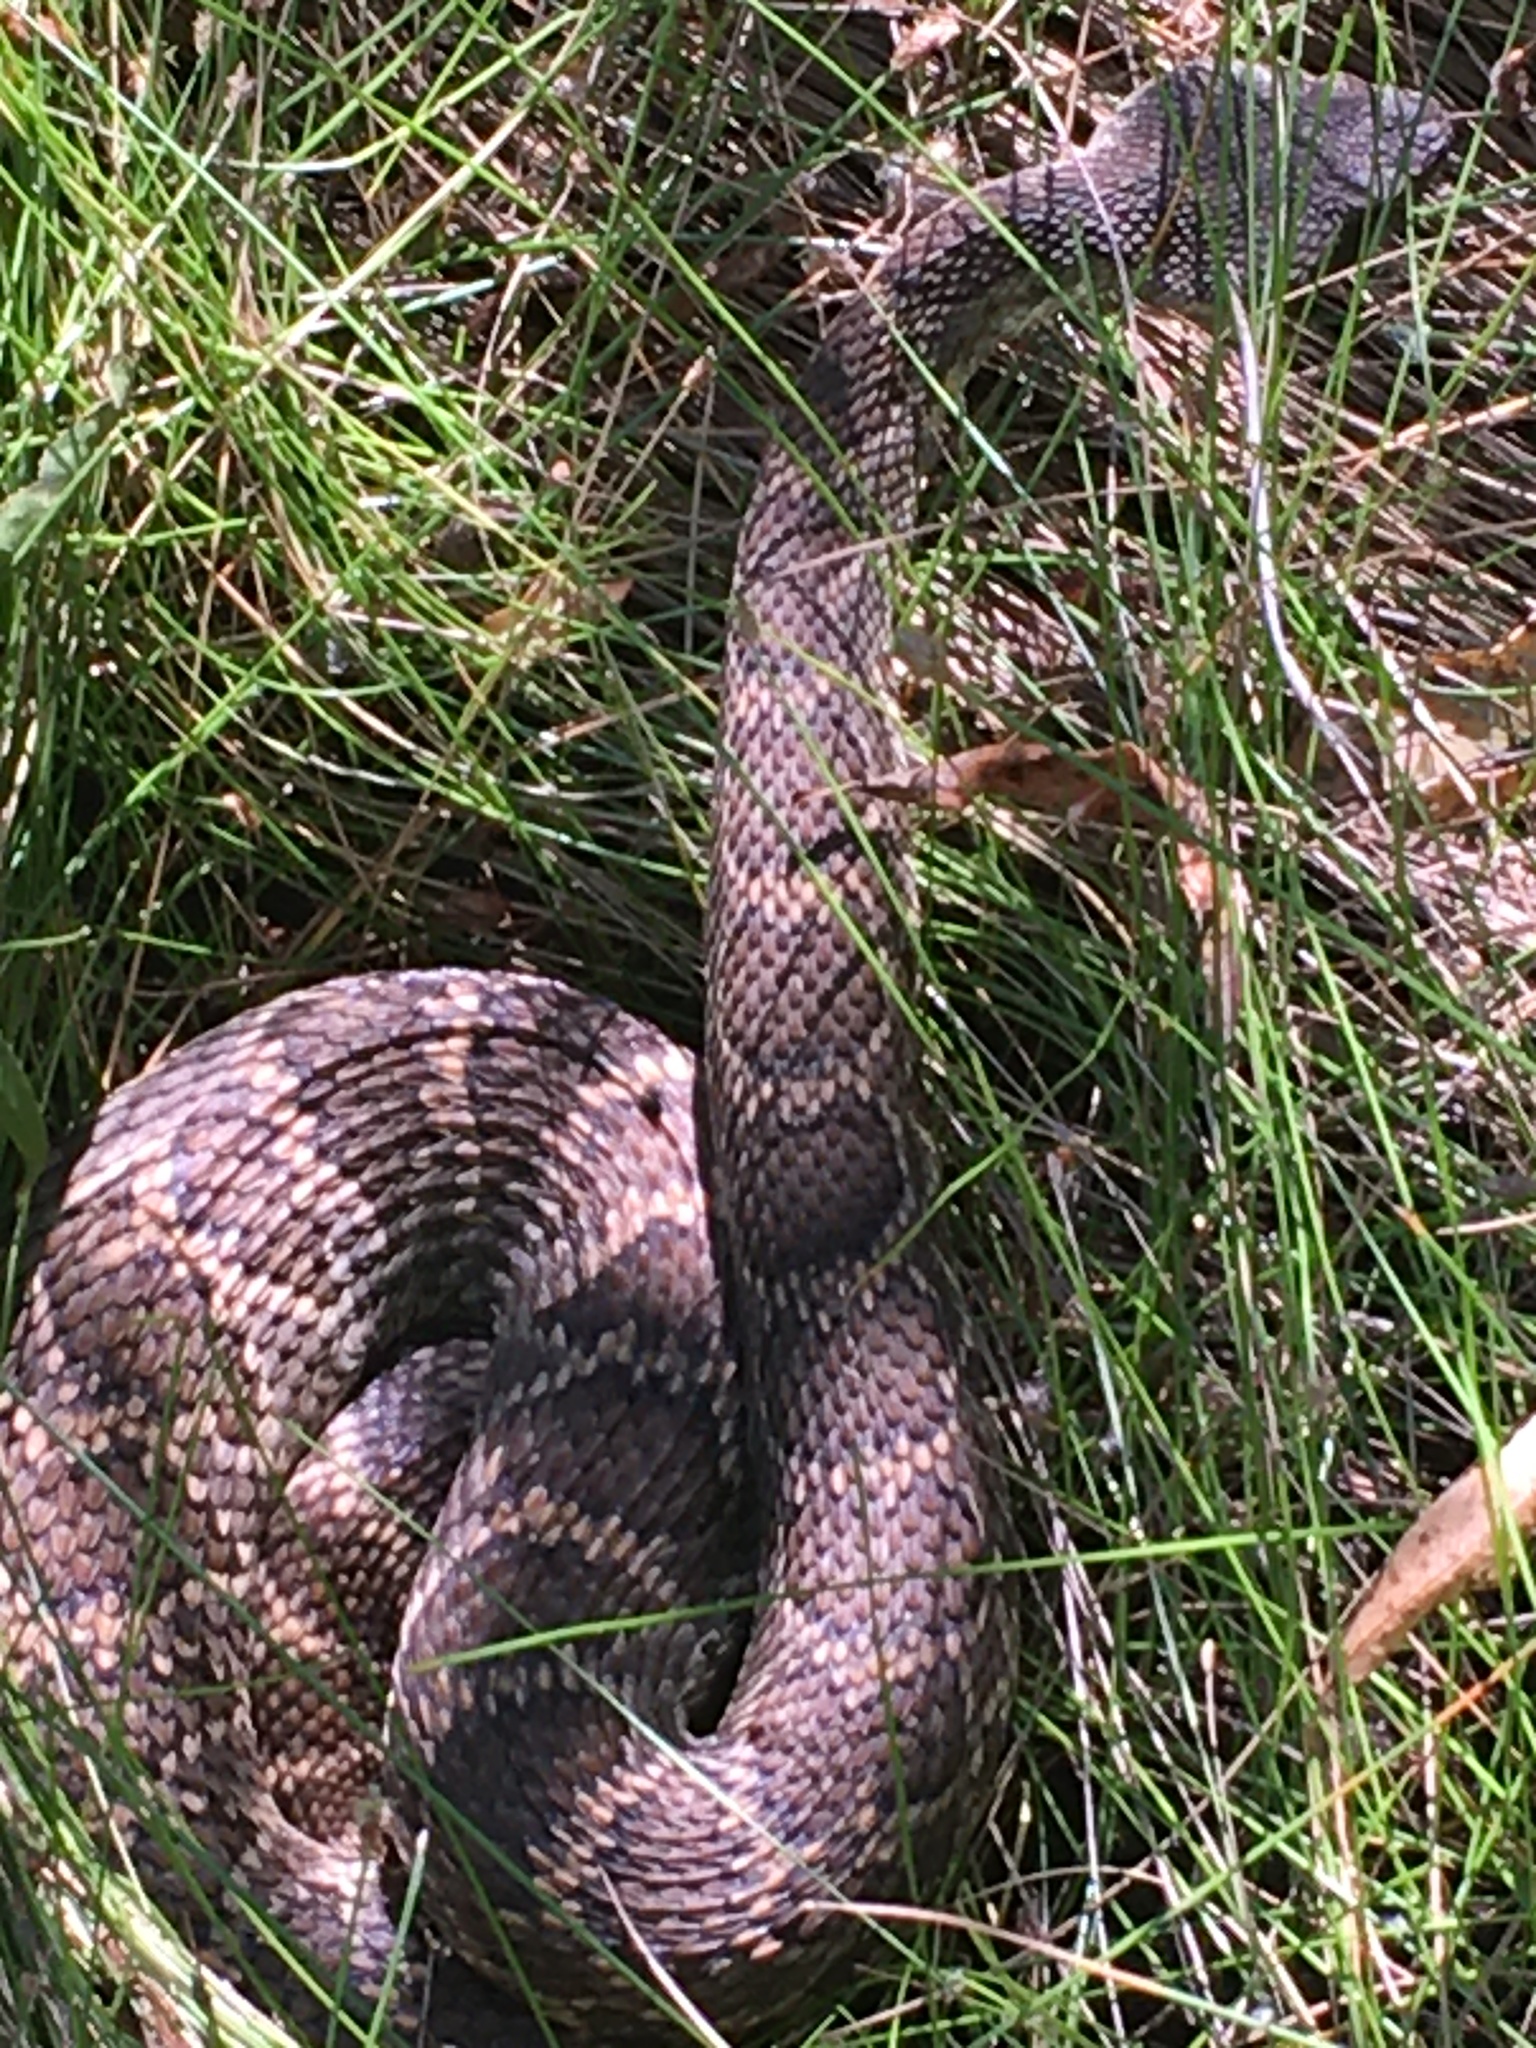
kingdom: Animalia
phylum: Chordata
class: Squamata
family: Viperidae
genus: Crotalus
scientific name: Crotalus oreganus
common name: Abyssus
